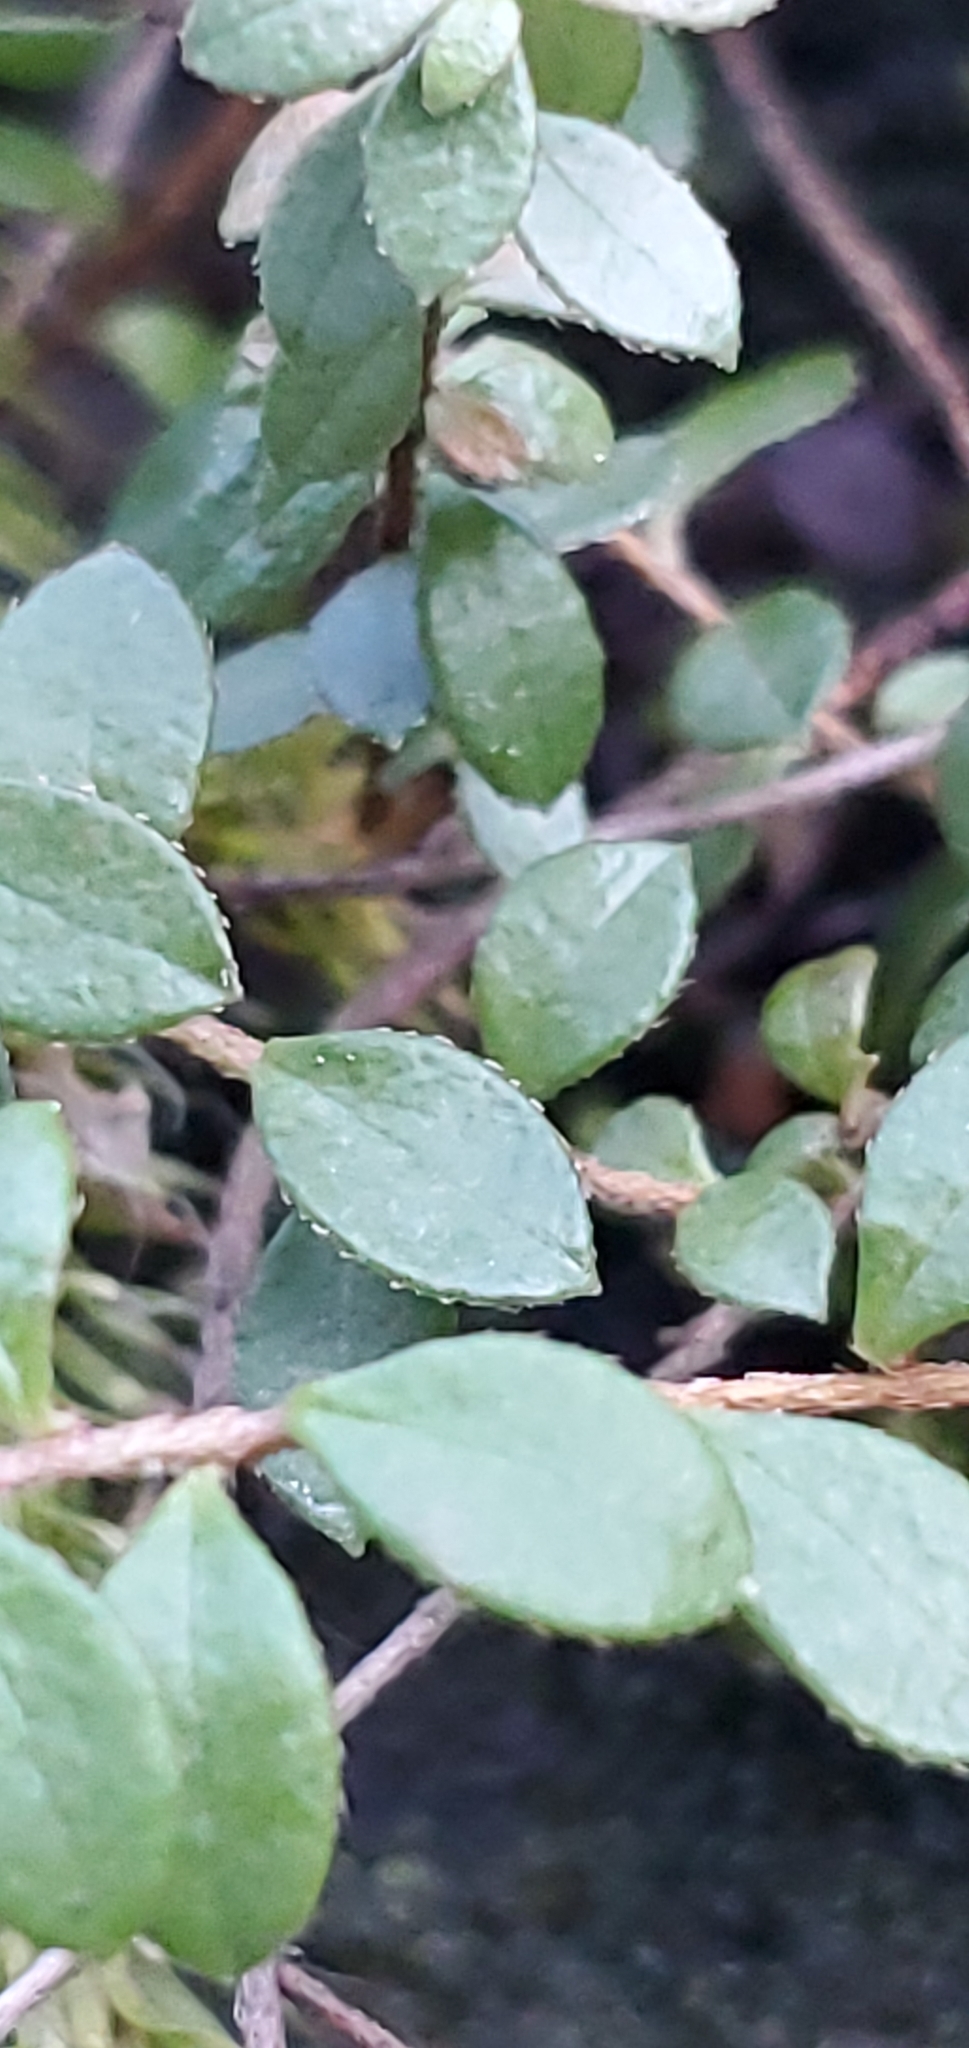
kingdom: Plantae
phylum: Tracheophyta
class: Magnoliopsida
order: Ericales
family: Ericaceae
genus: Gaultheria
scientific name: Gaultheria hispidula
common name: Cancer wintergreen
